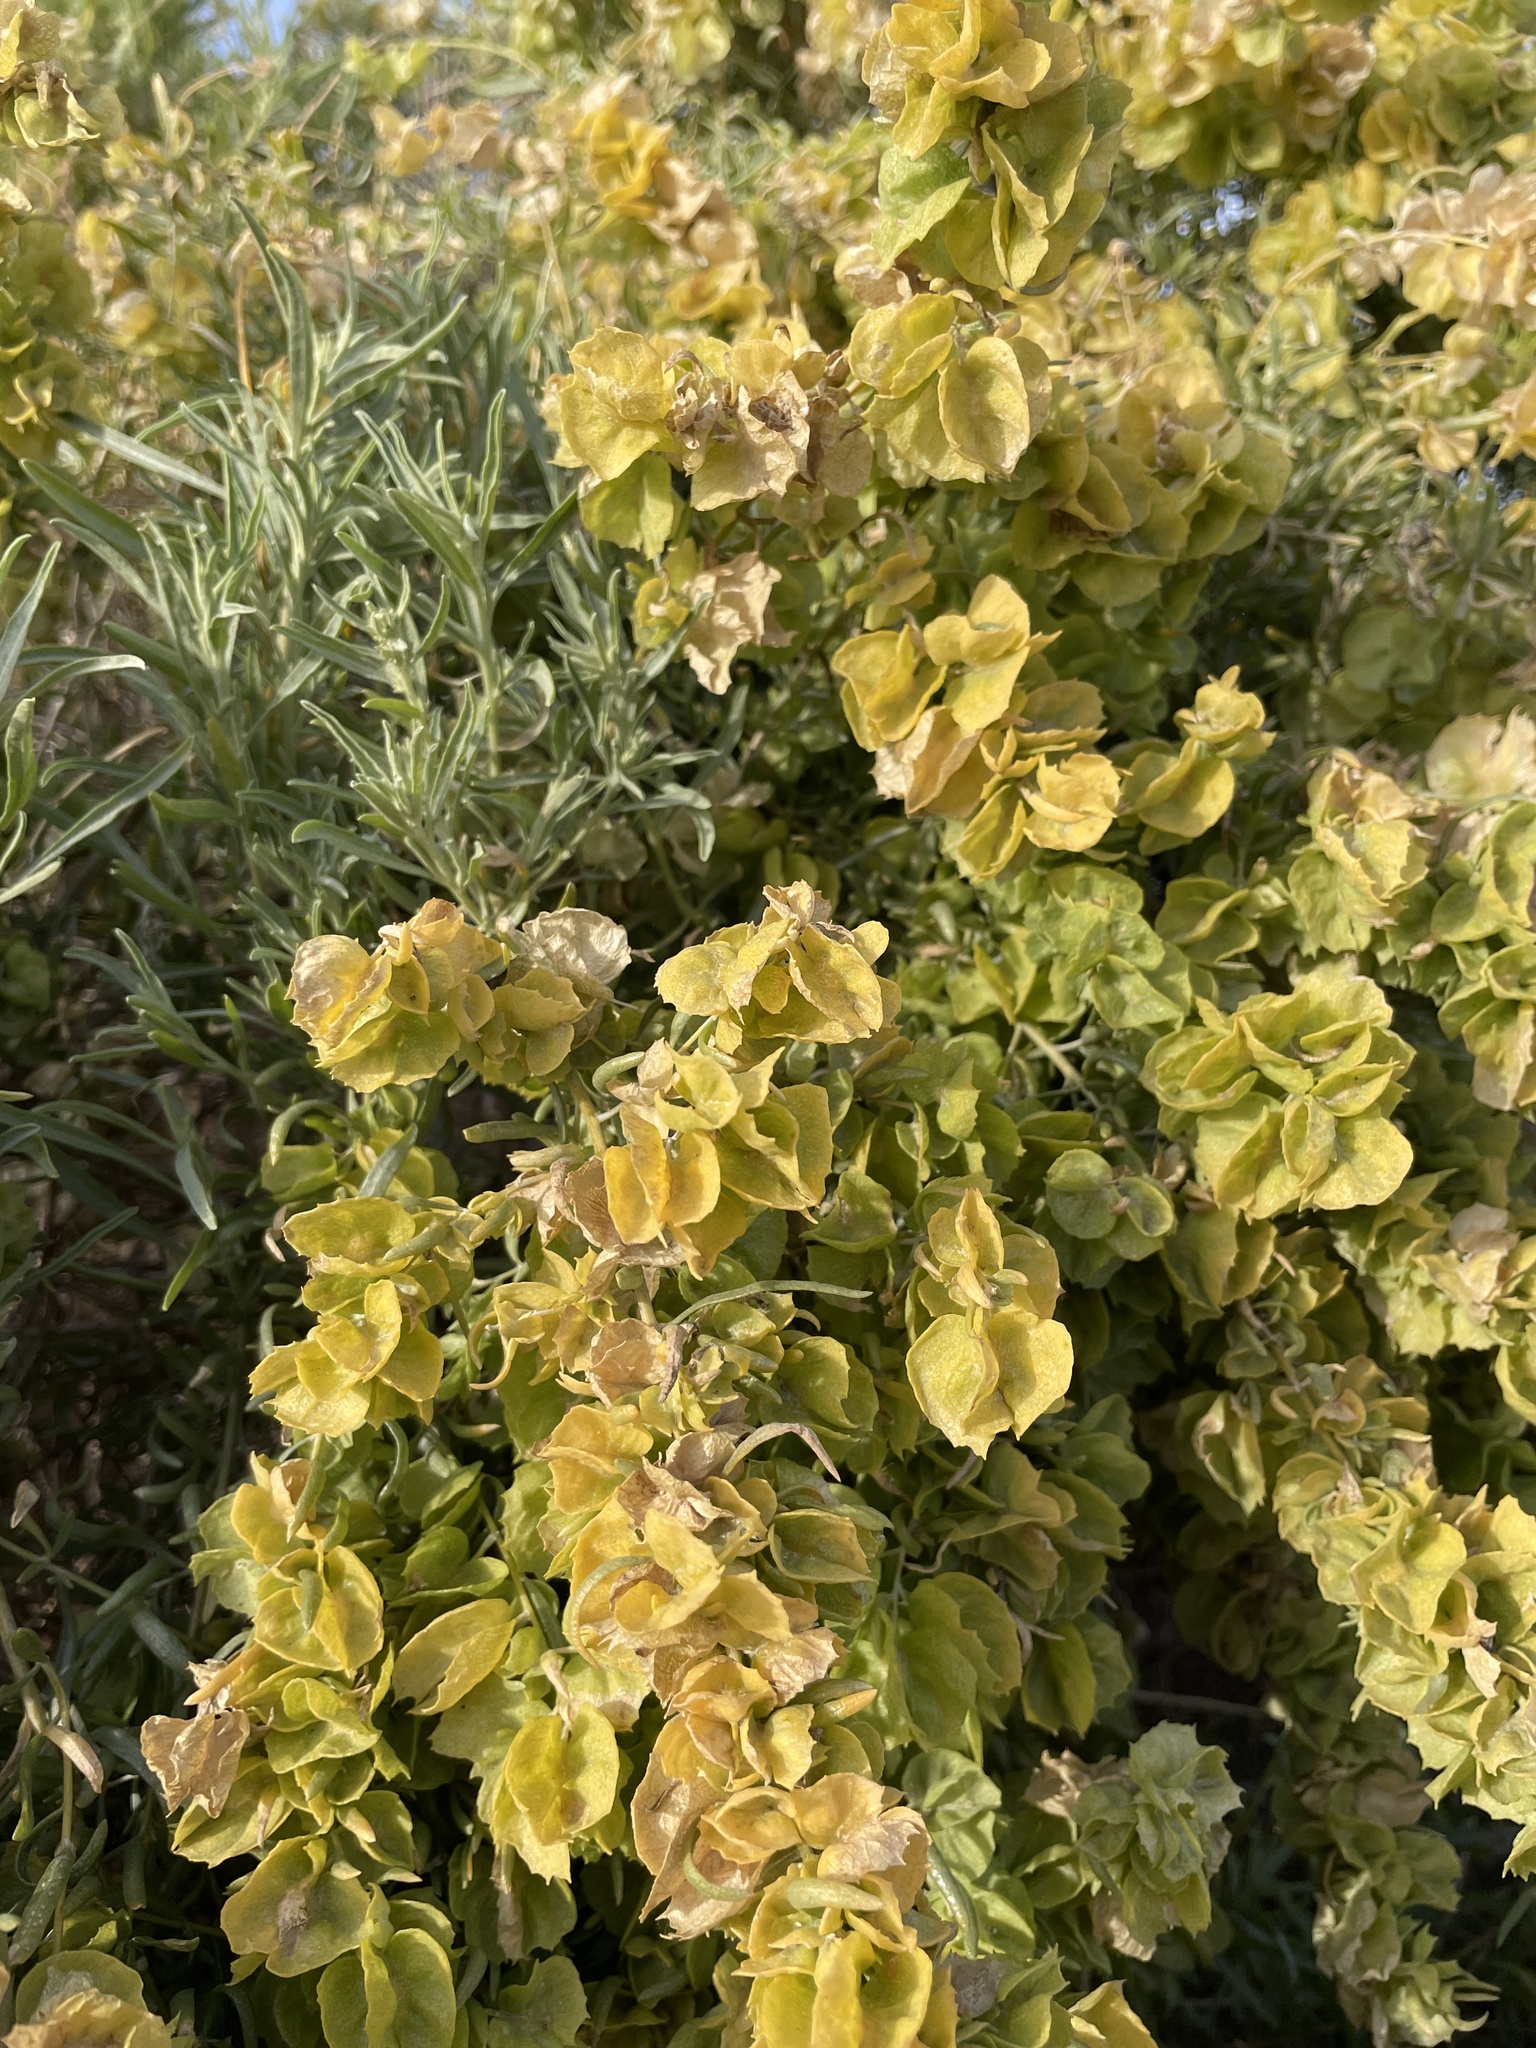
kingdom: Plantae
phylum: Tracheophyta
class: Magnoliopsida
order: Caryophyllales
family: Amaranthaceae
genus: Atriplex
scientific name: Atriplex canescens
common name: Four-wing saltbush
